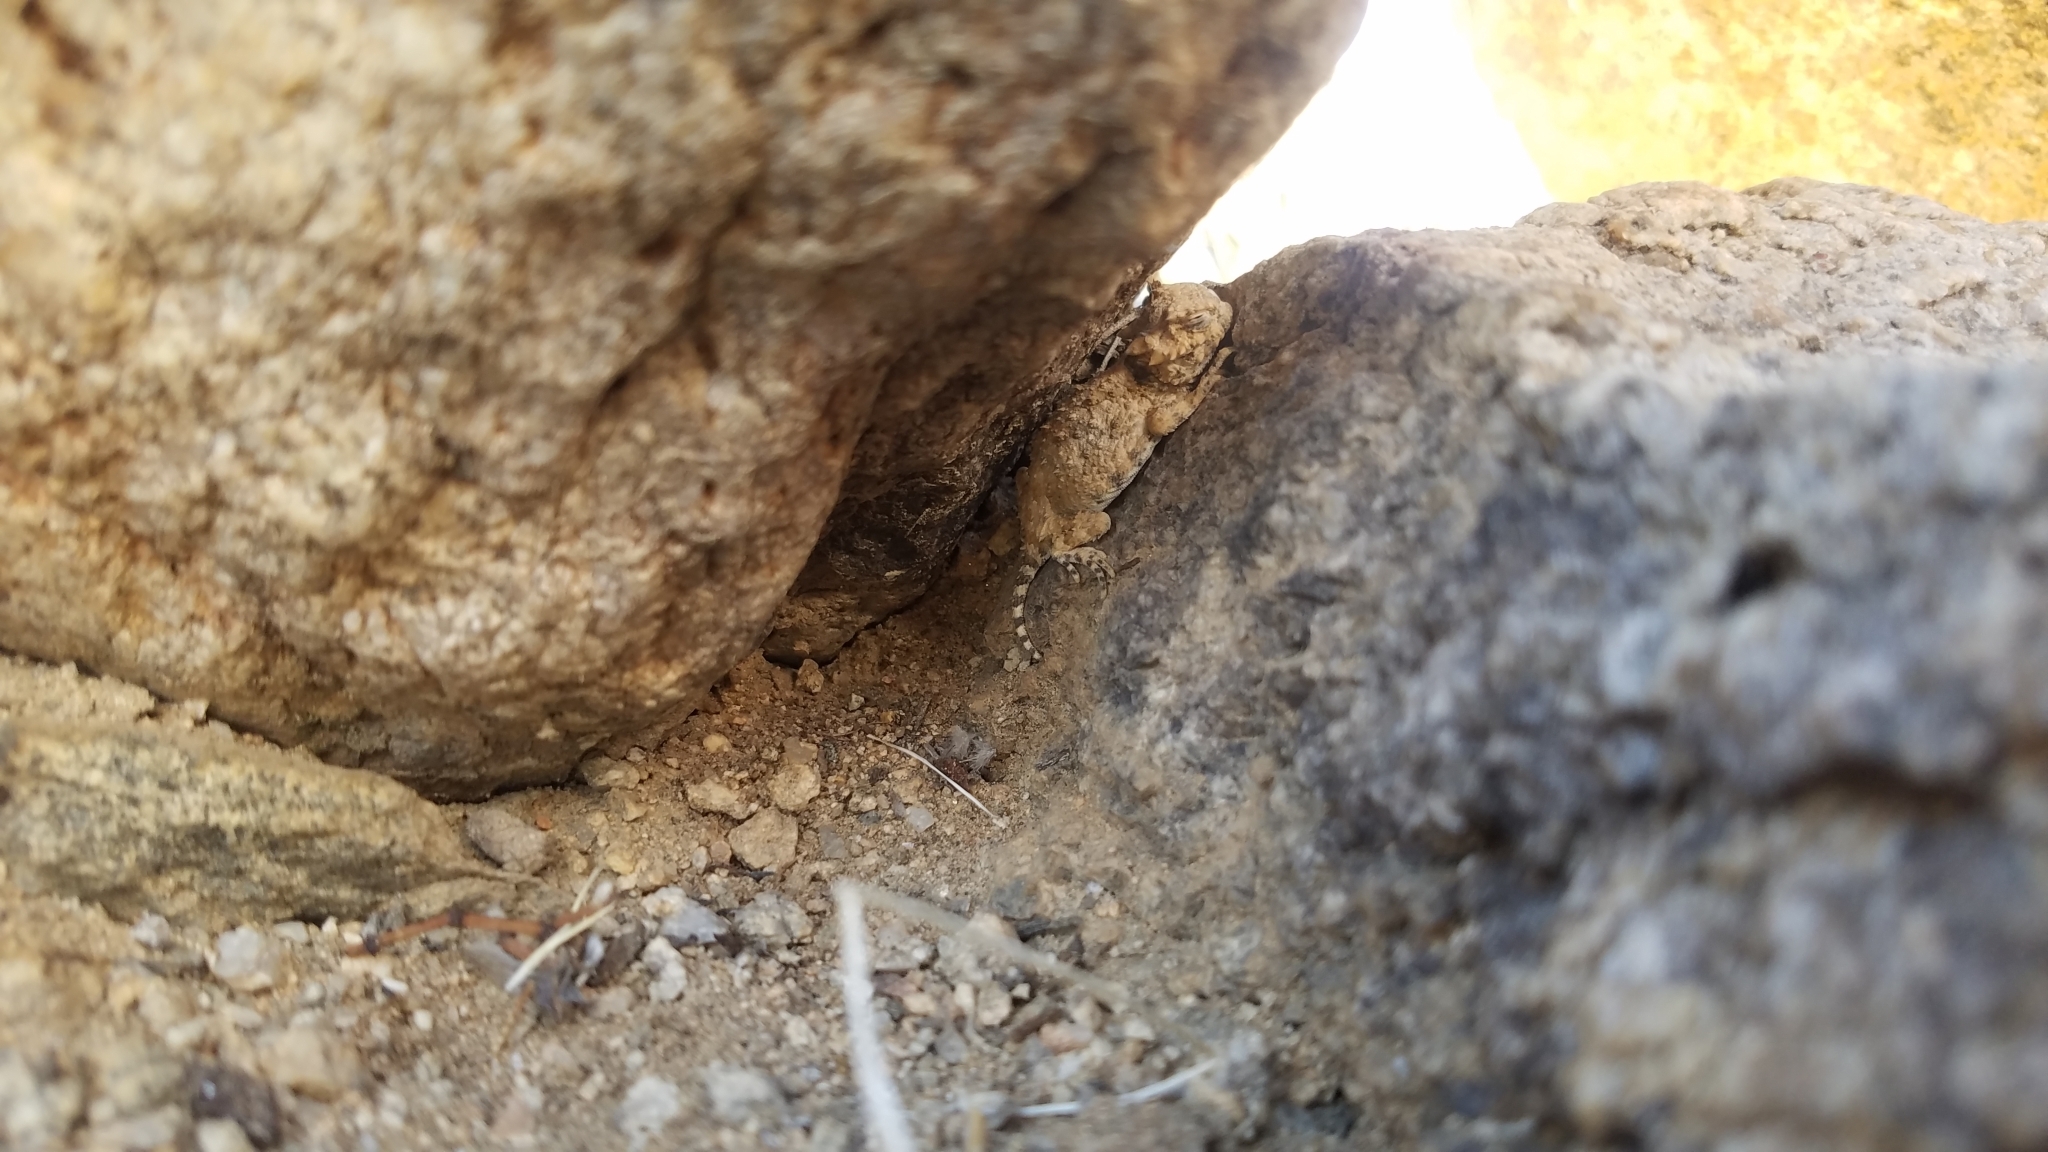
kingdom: Animalia
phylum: Chordata
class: Squamata
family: Phrynosomatidae
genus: Phrynosoma
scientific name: Phrynosoma platyrhinos
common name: Desert horned lizard
